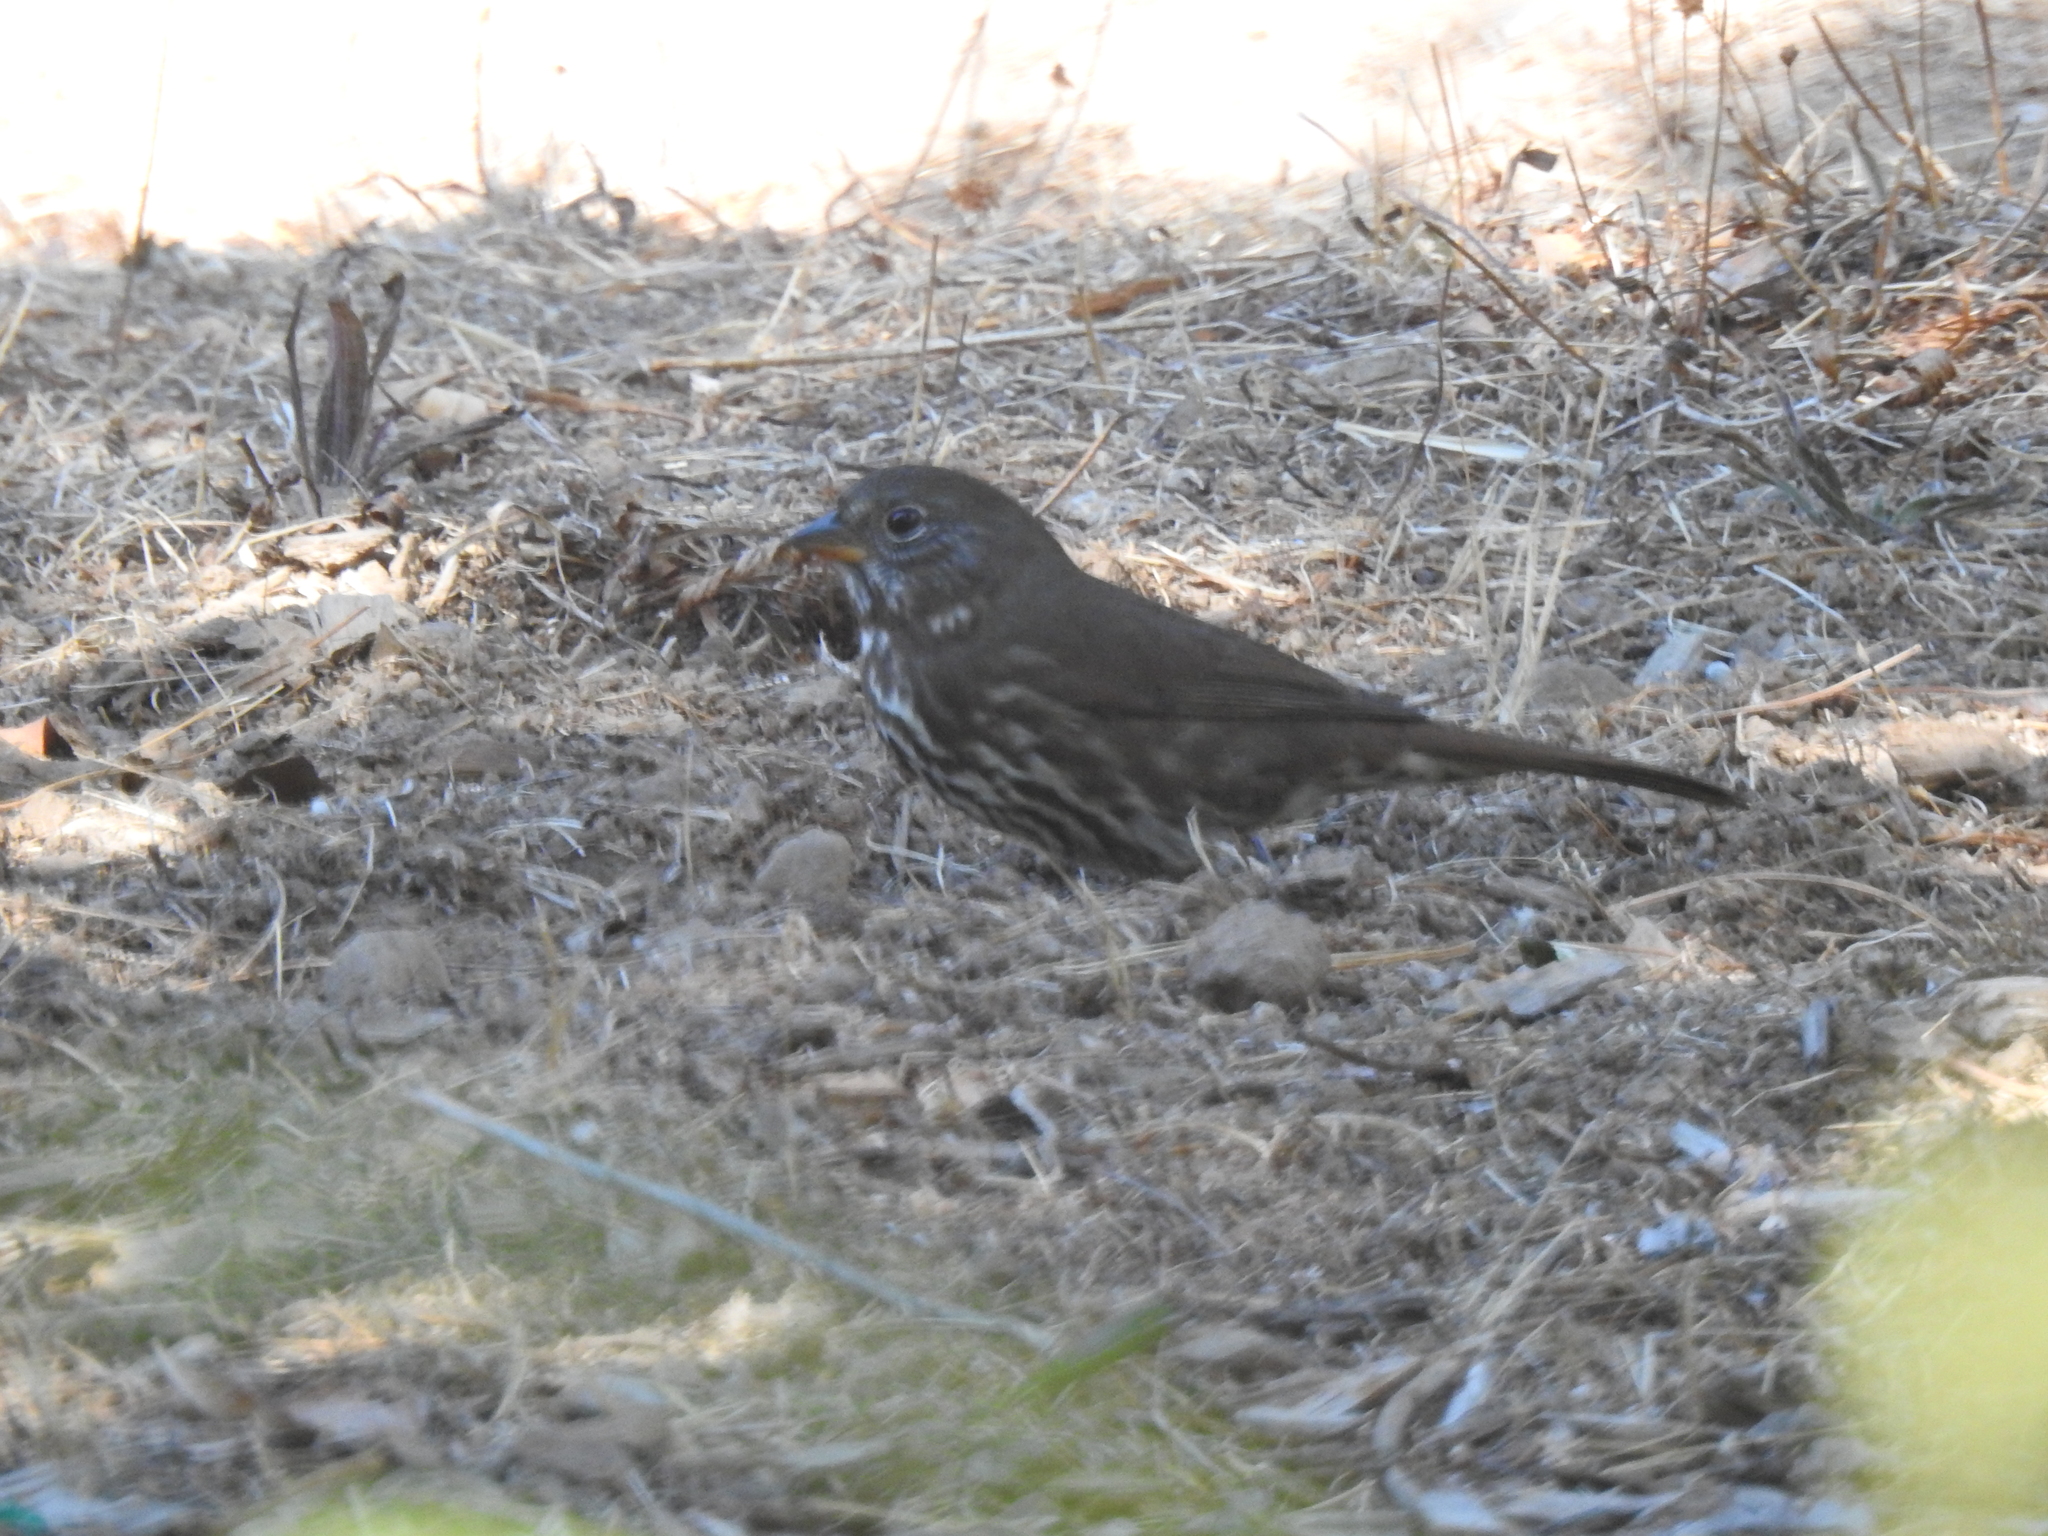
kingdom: Animalia
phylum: Chordata
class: Aves
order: Passeriformes
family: Passerellidae
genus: Passerella
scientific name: Passerella iliaca
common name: Fox sparrow
